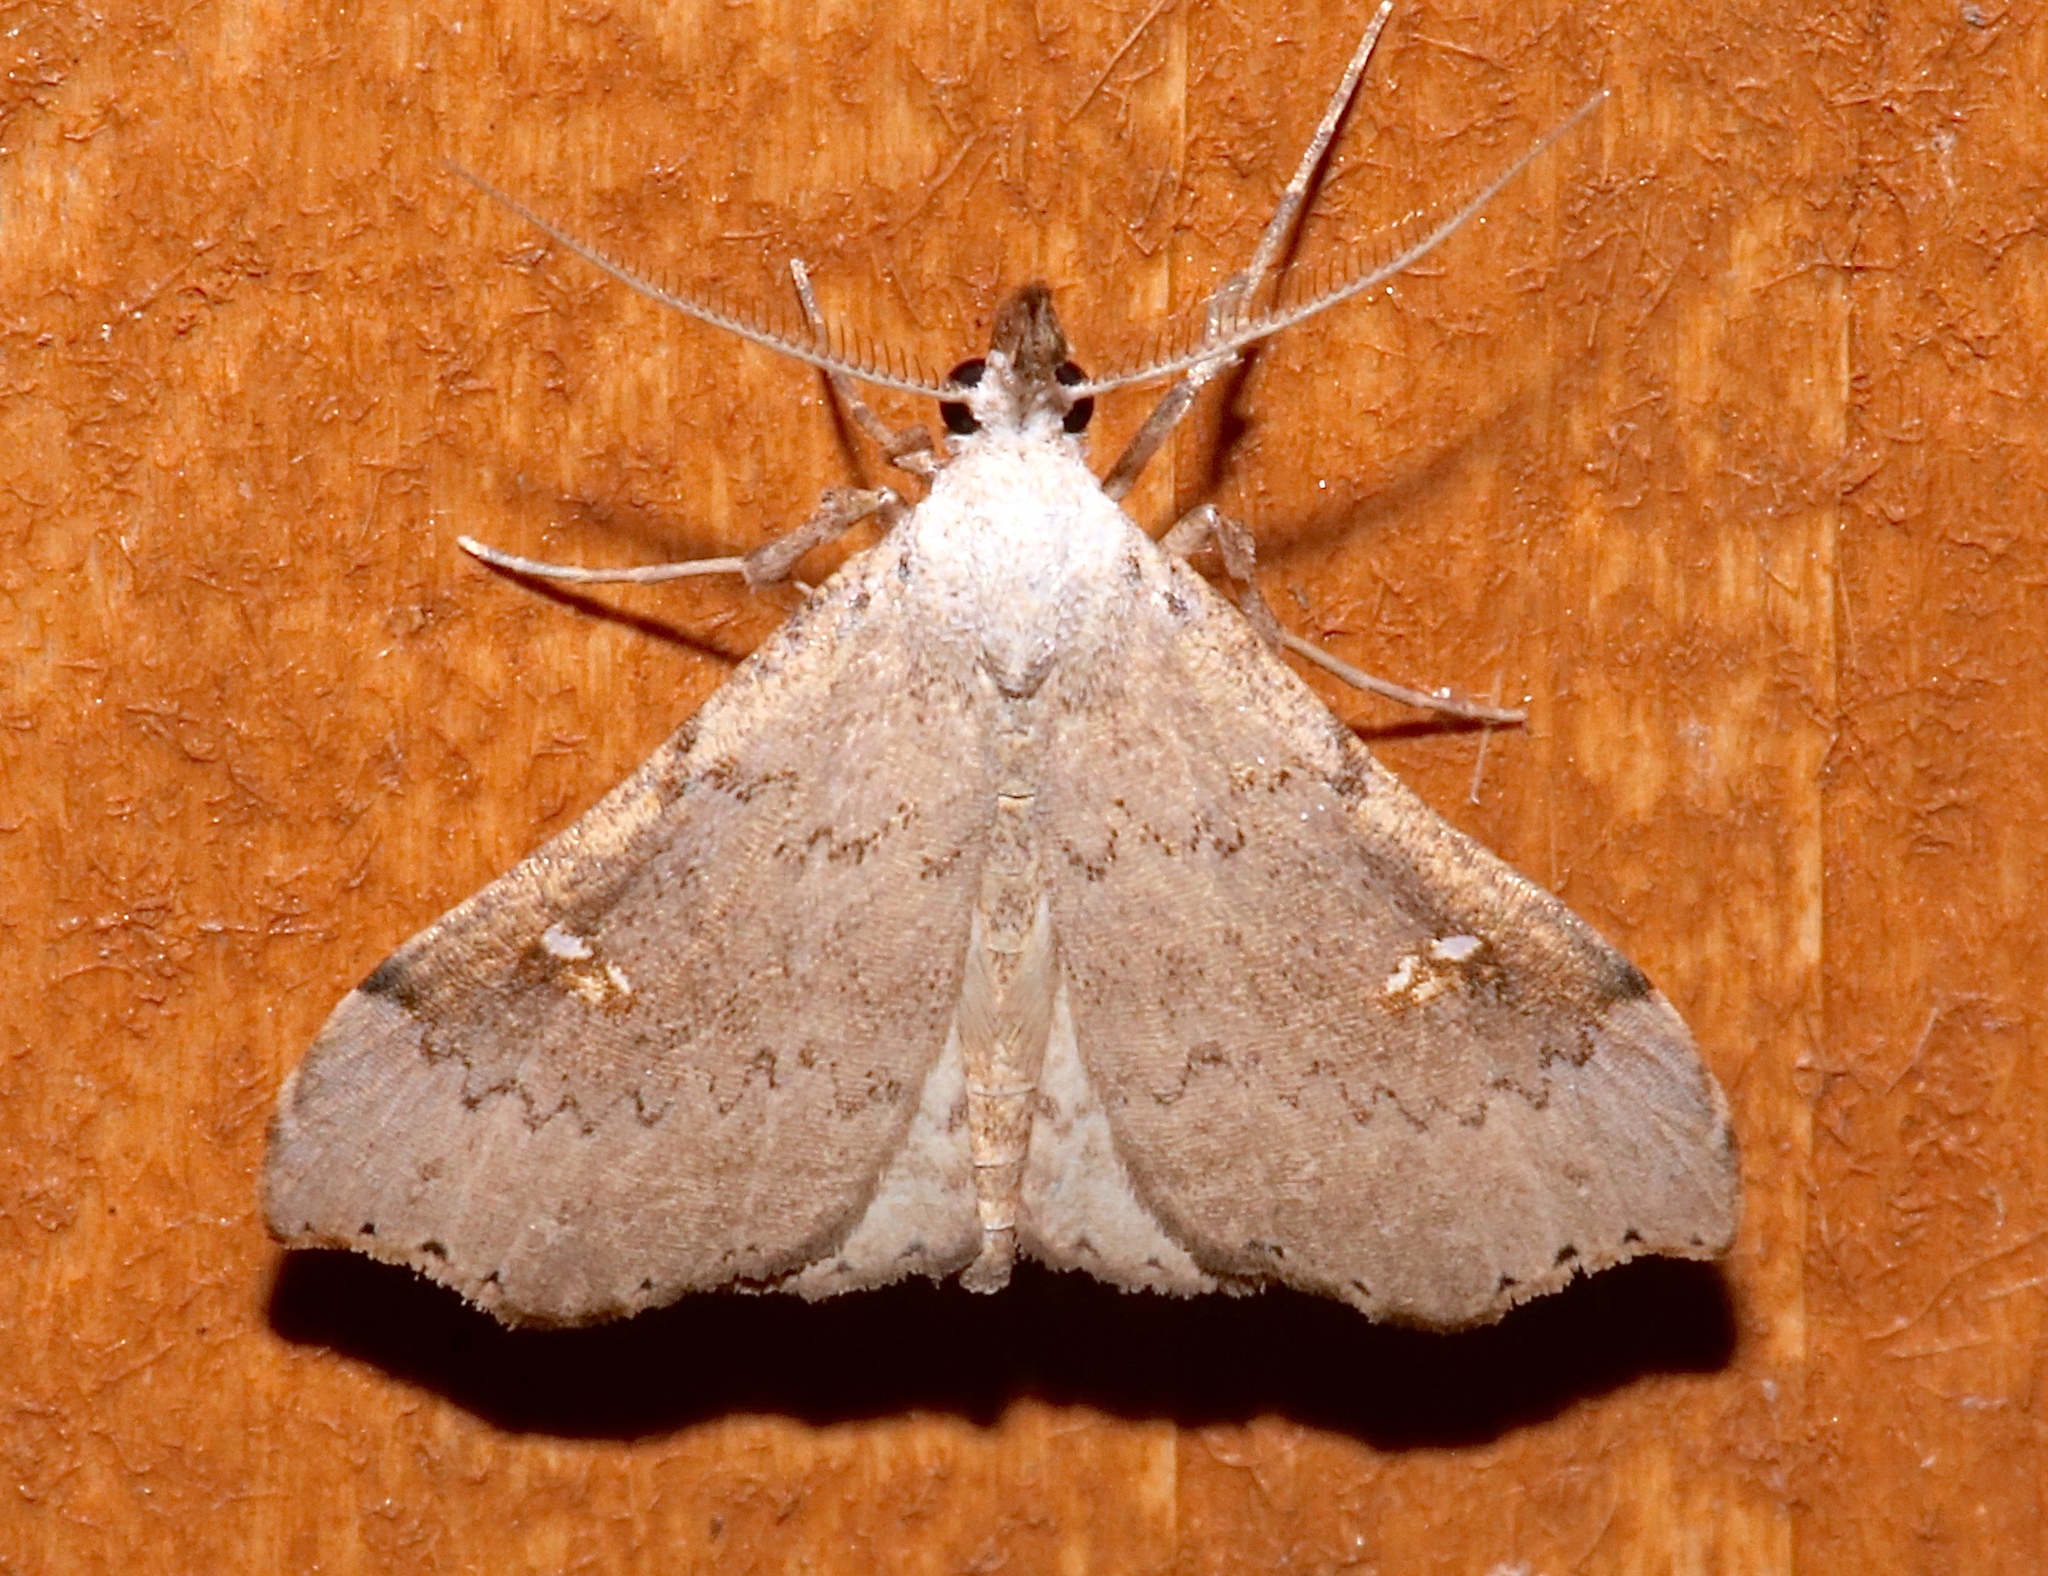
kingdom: Animalia
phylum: Arthropoda
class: Insecta
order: Lepidoptera
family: Erebidae
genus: Redectis
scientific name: Redectis vitrea
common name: White-spotted redectis
